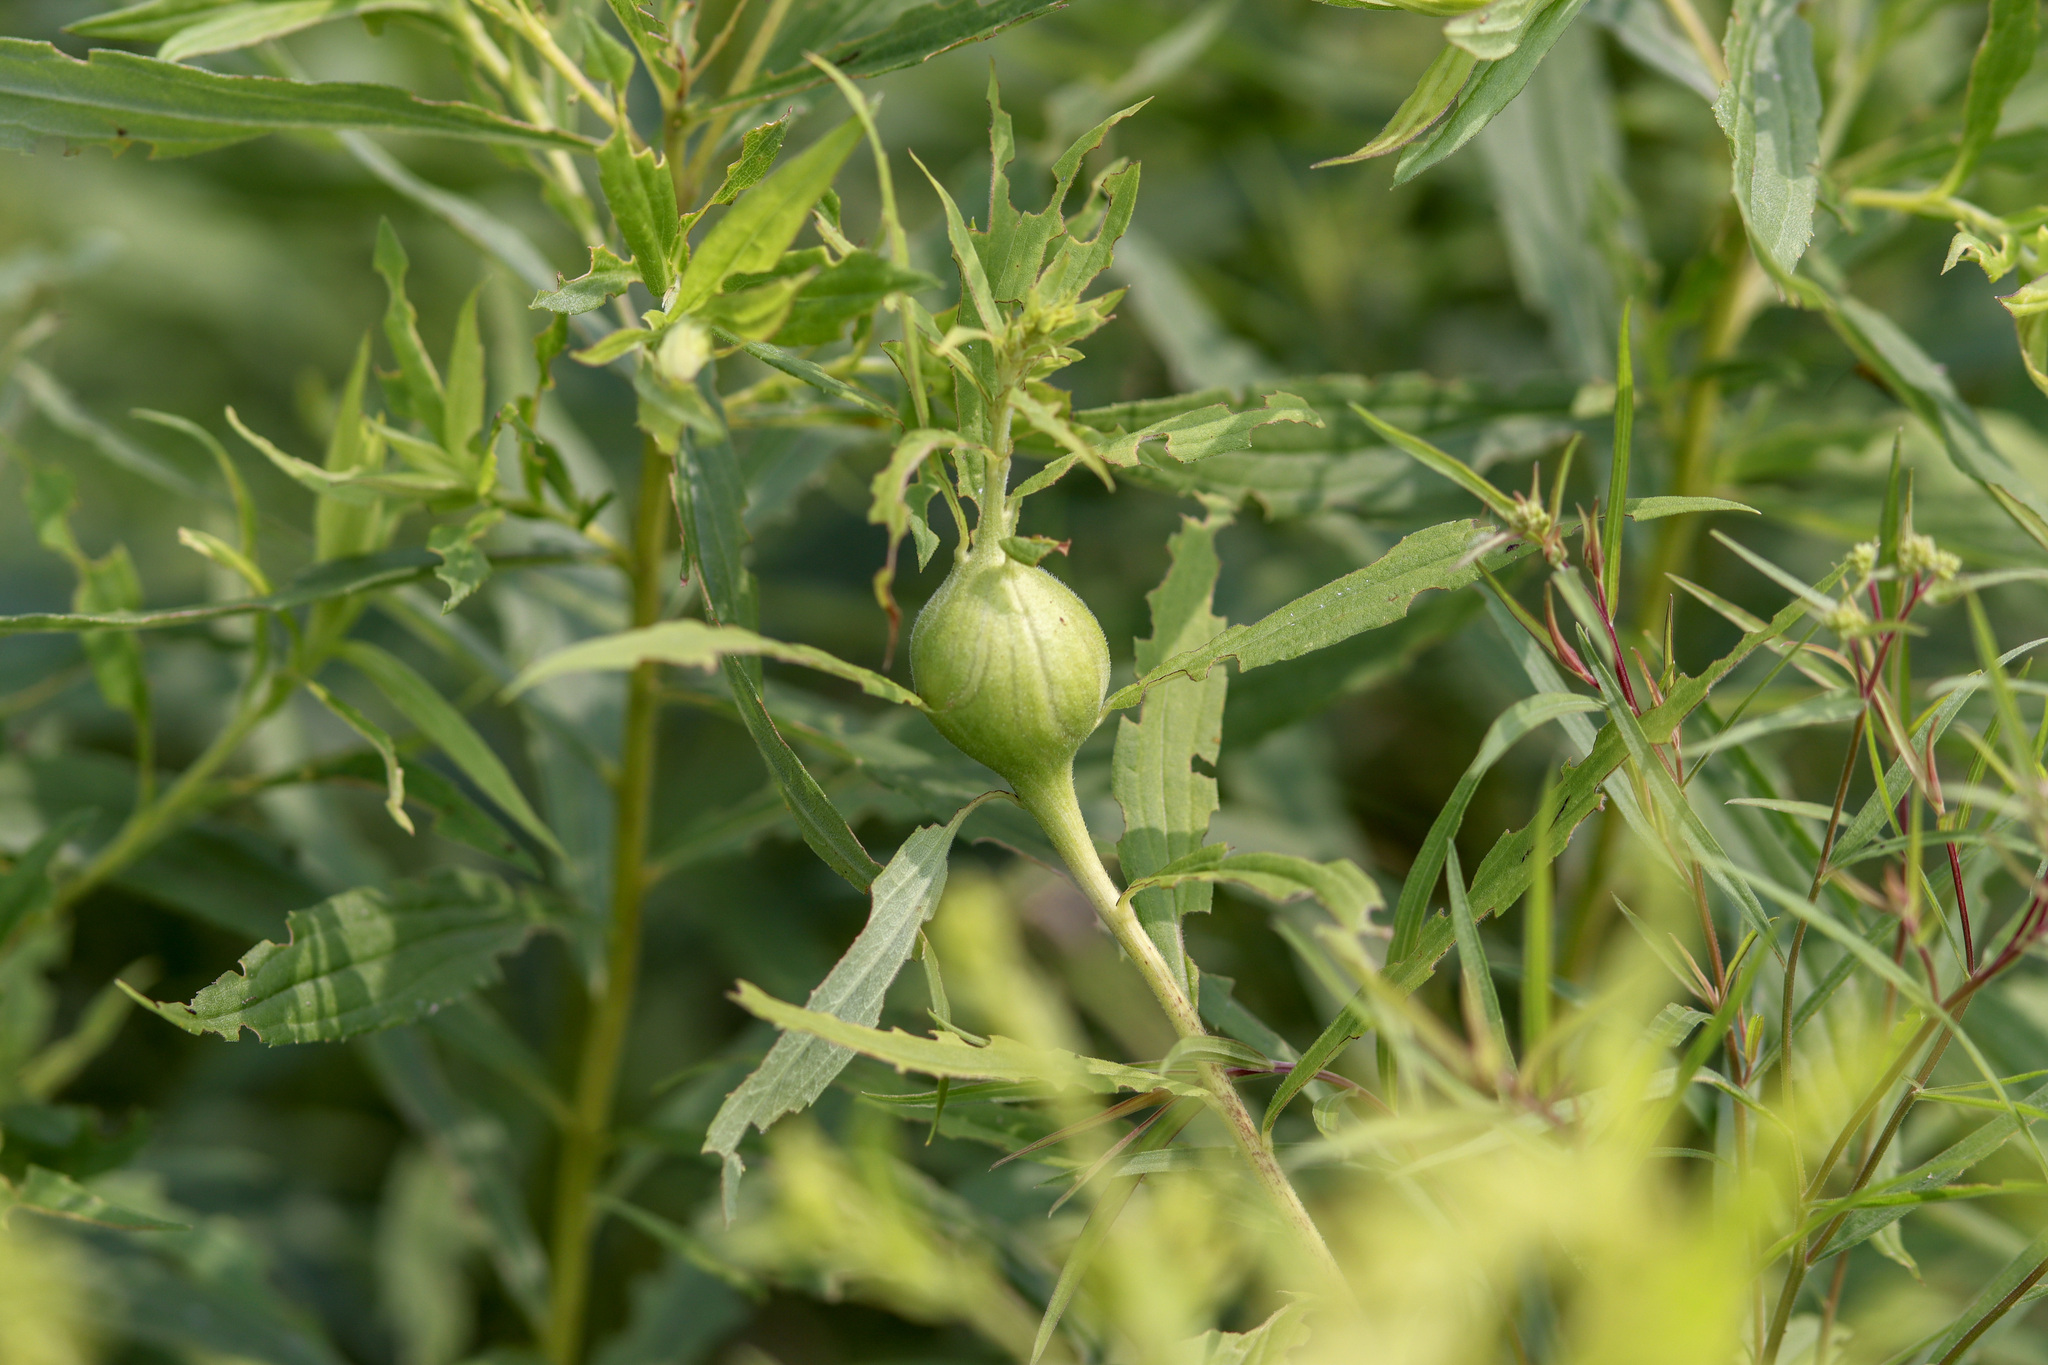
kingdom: Animalia
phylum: Arthropoda
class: Insecta
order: Diptera
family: Tephritidae
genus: Eurosta
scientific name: Eurosta solidaginis
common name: Goldenrod gall fly
